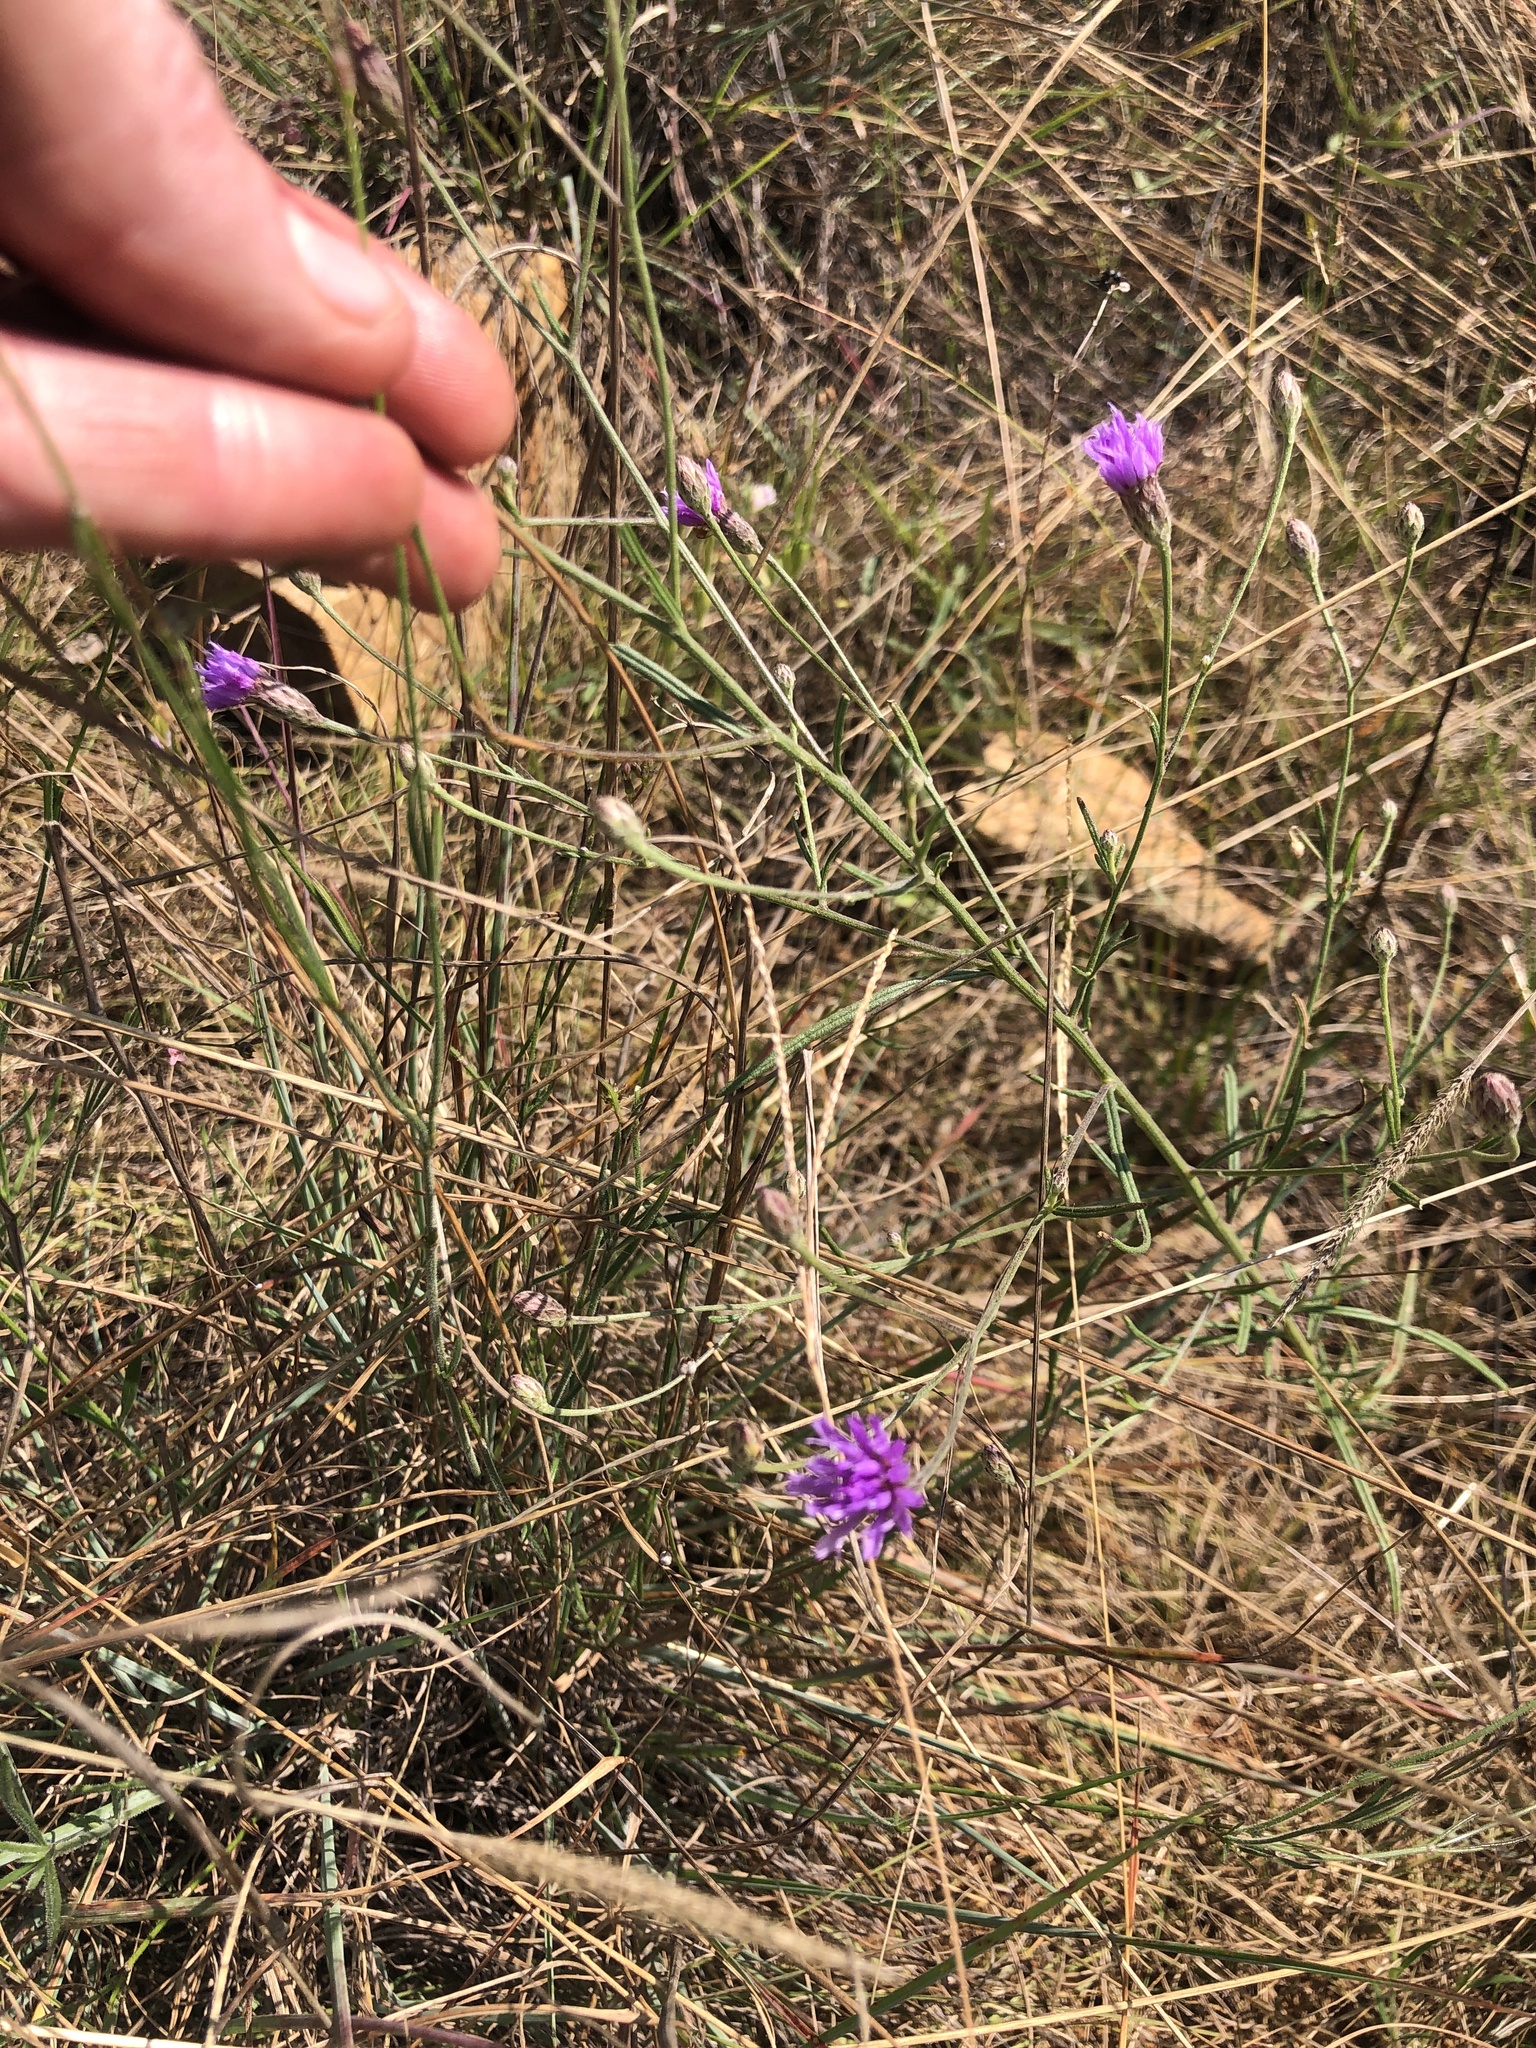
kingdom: Plantae
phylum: Tracheophyta
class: Magnoliopsida
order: Asterales
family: Asteraceae
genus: Crystallopollen
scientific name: Crystallopollen angustifolium
